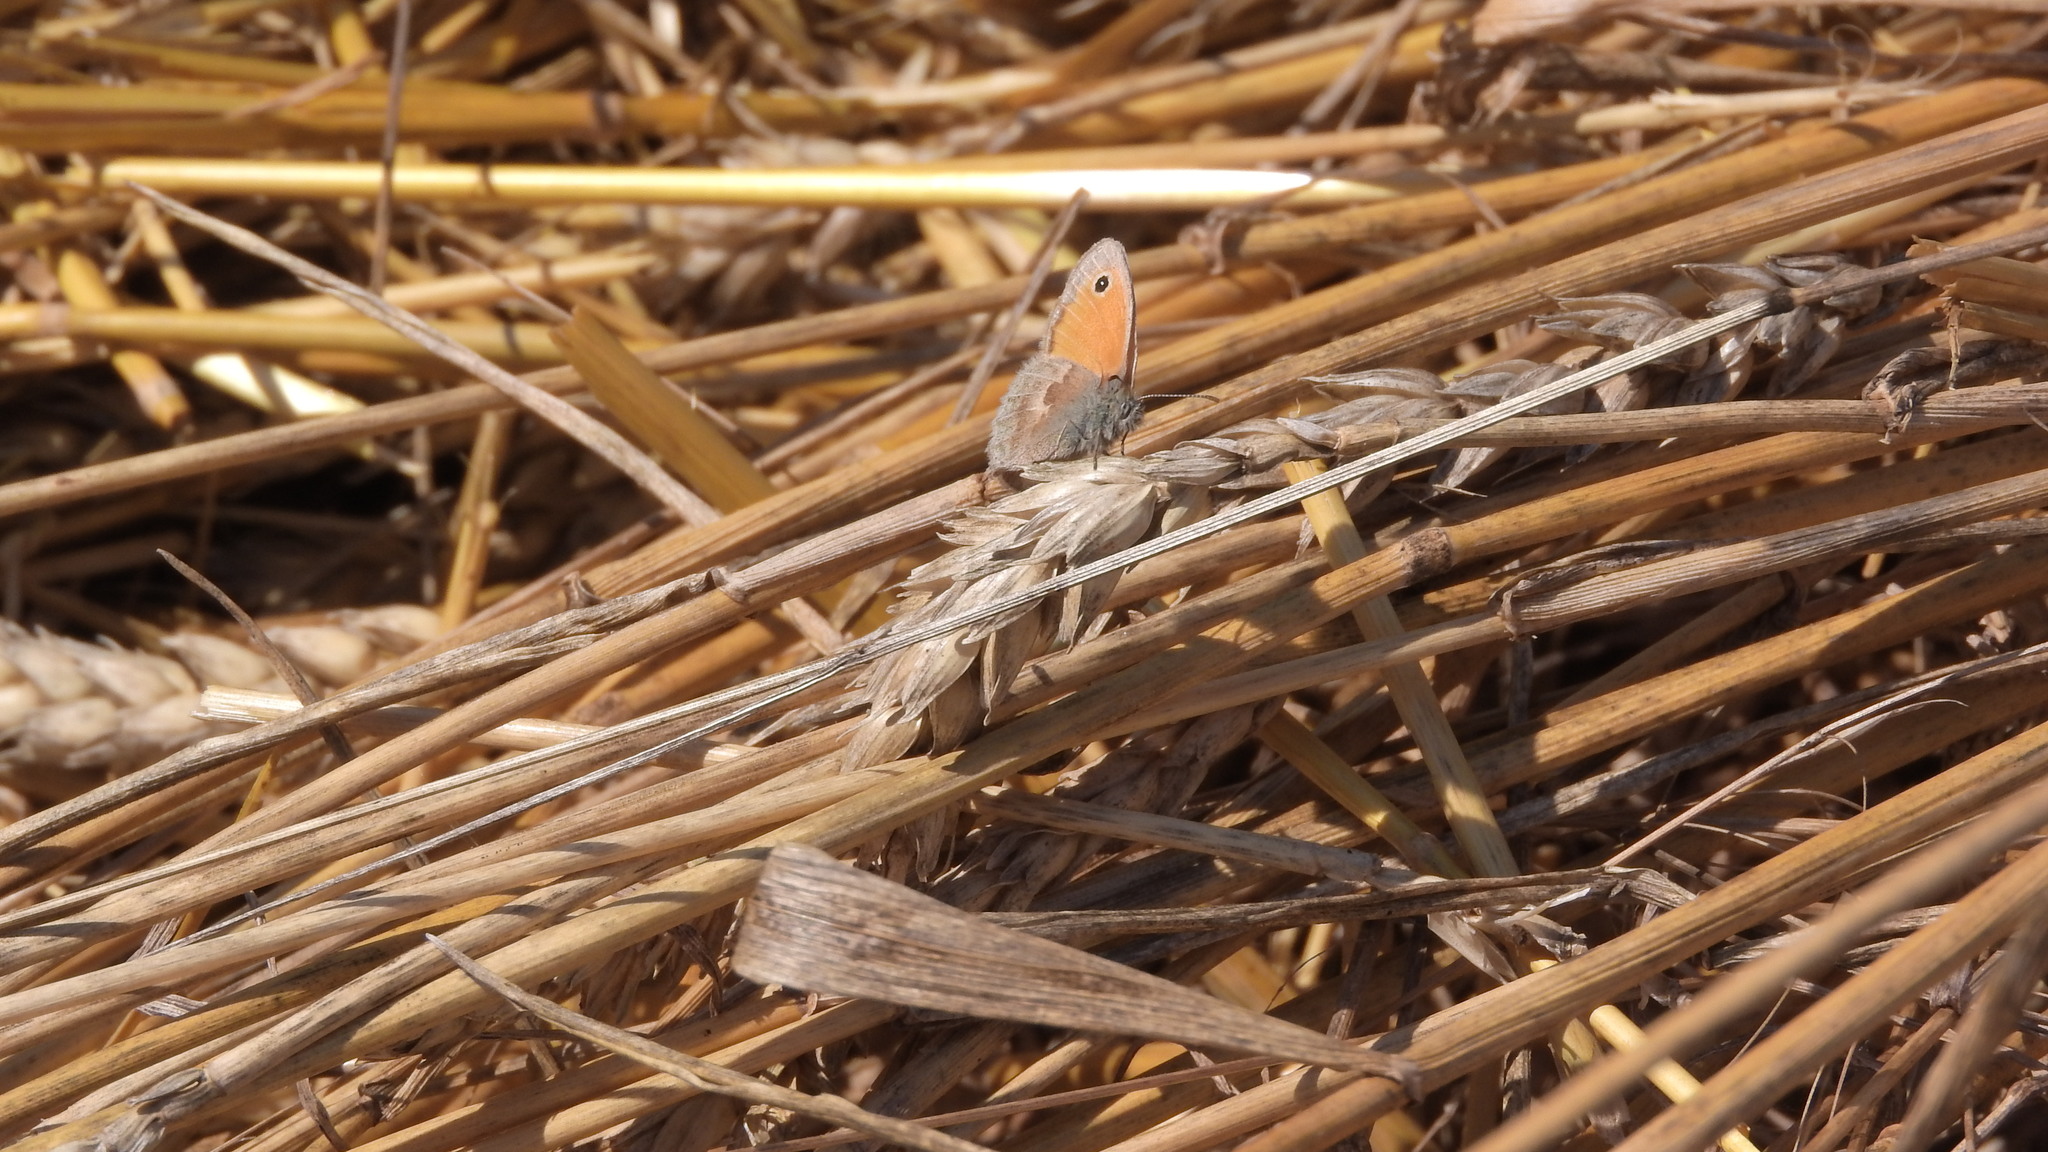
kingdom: Animalia
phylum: Arthropoda
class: Insecta
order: Lepidoptera
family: Nymphalidae
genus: Coenonympha
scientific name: Coenonympha pamphilus
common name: Small heath
